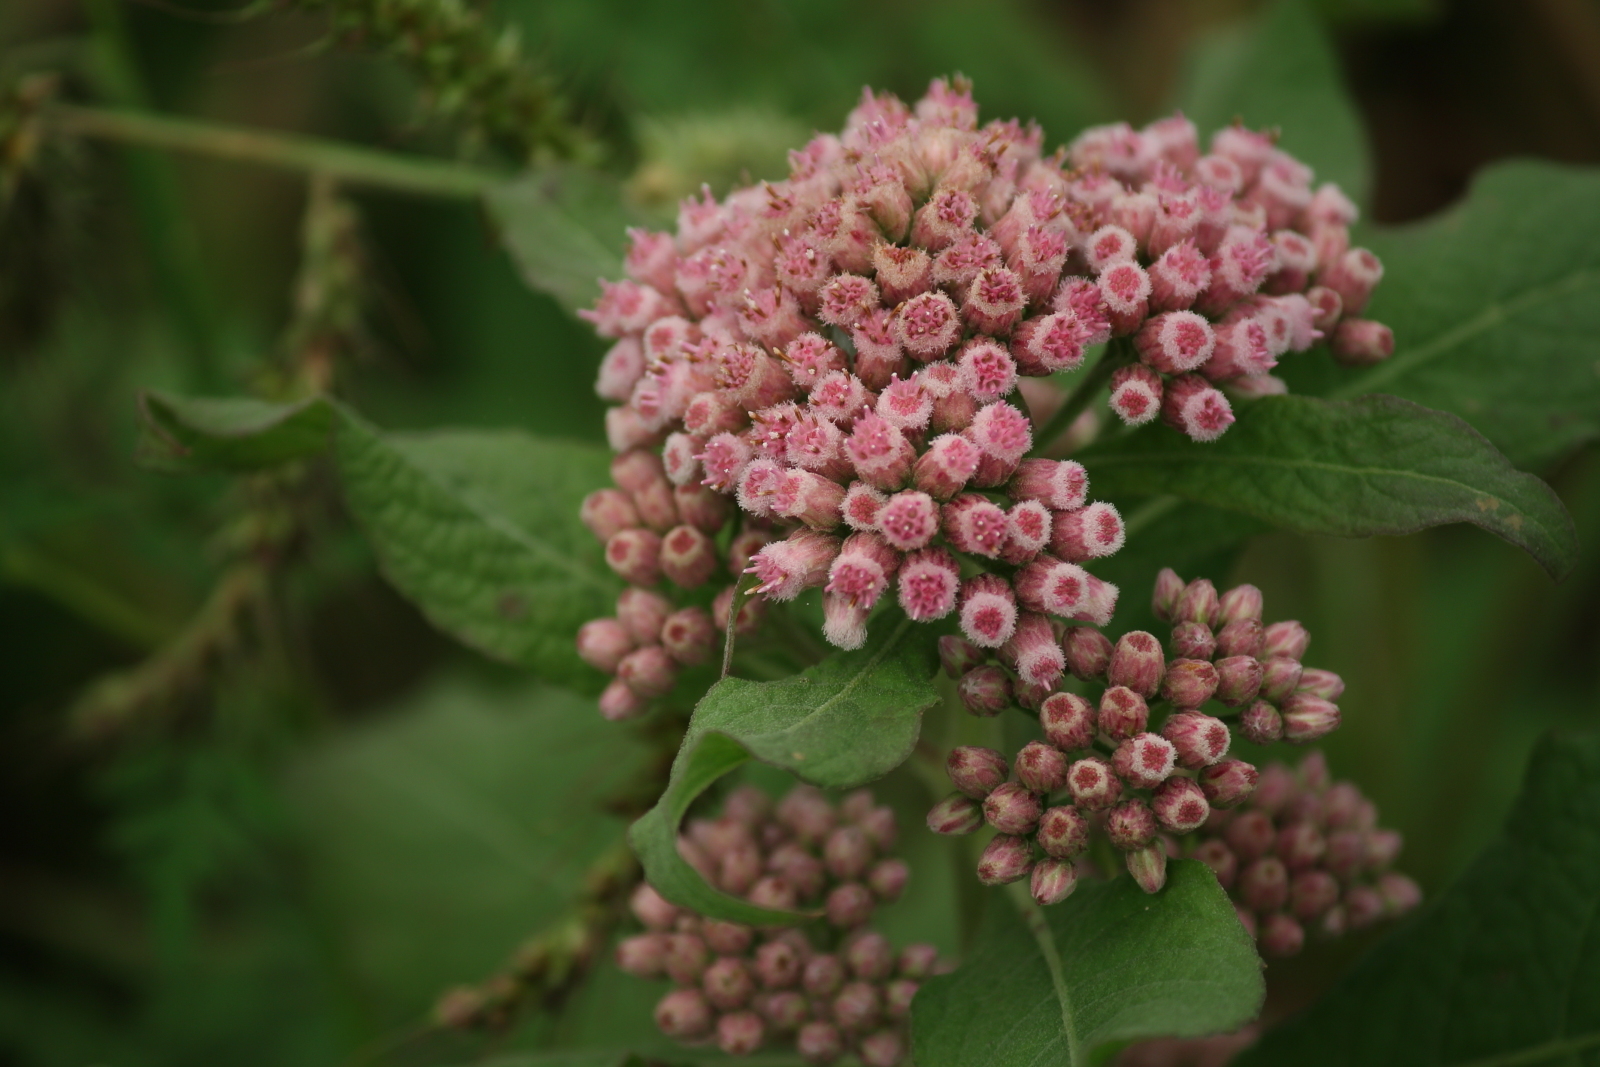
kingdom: Plantae
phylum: Tracheophyta
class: Magnoliopsida
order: Asterales
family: Asteraceae
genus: Pluchea
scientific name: Pluchea camphorata
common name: Camphor pluchea
